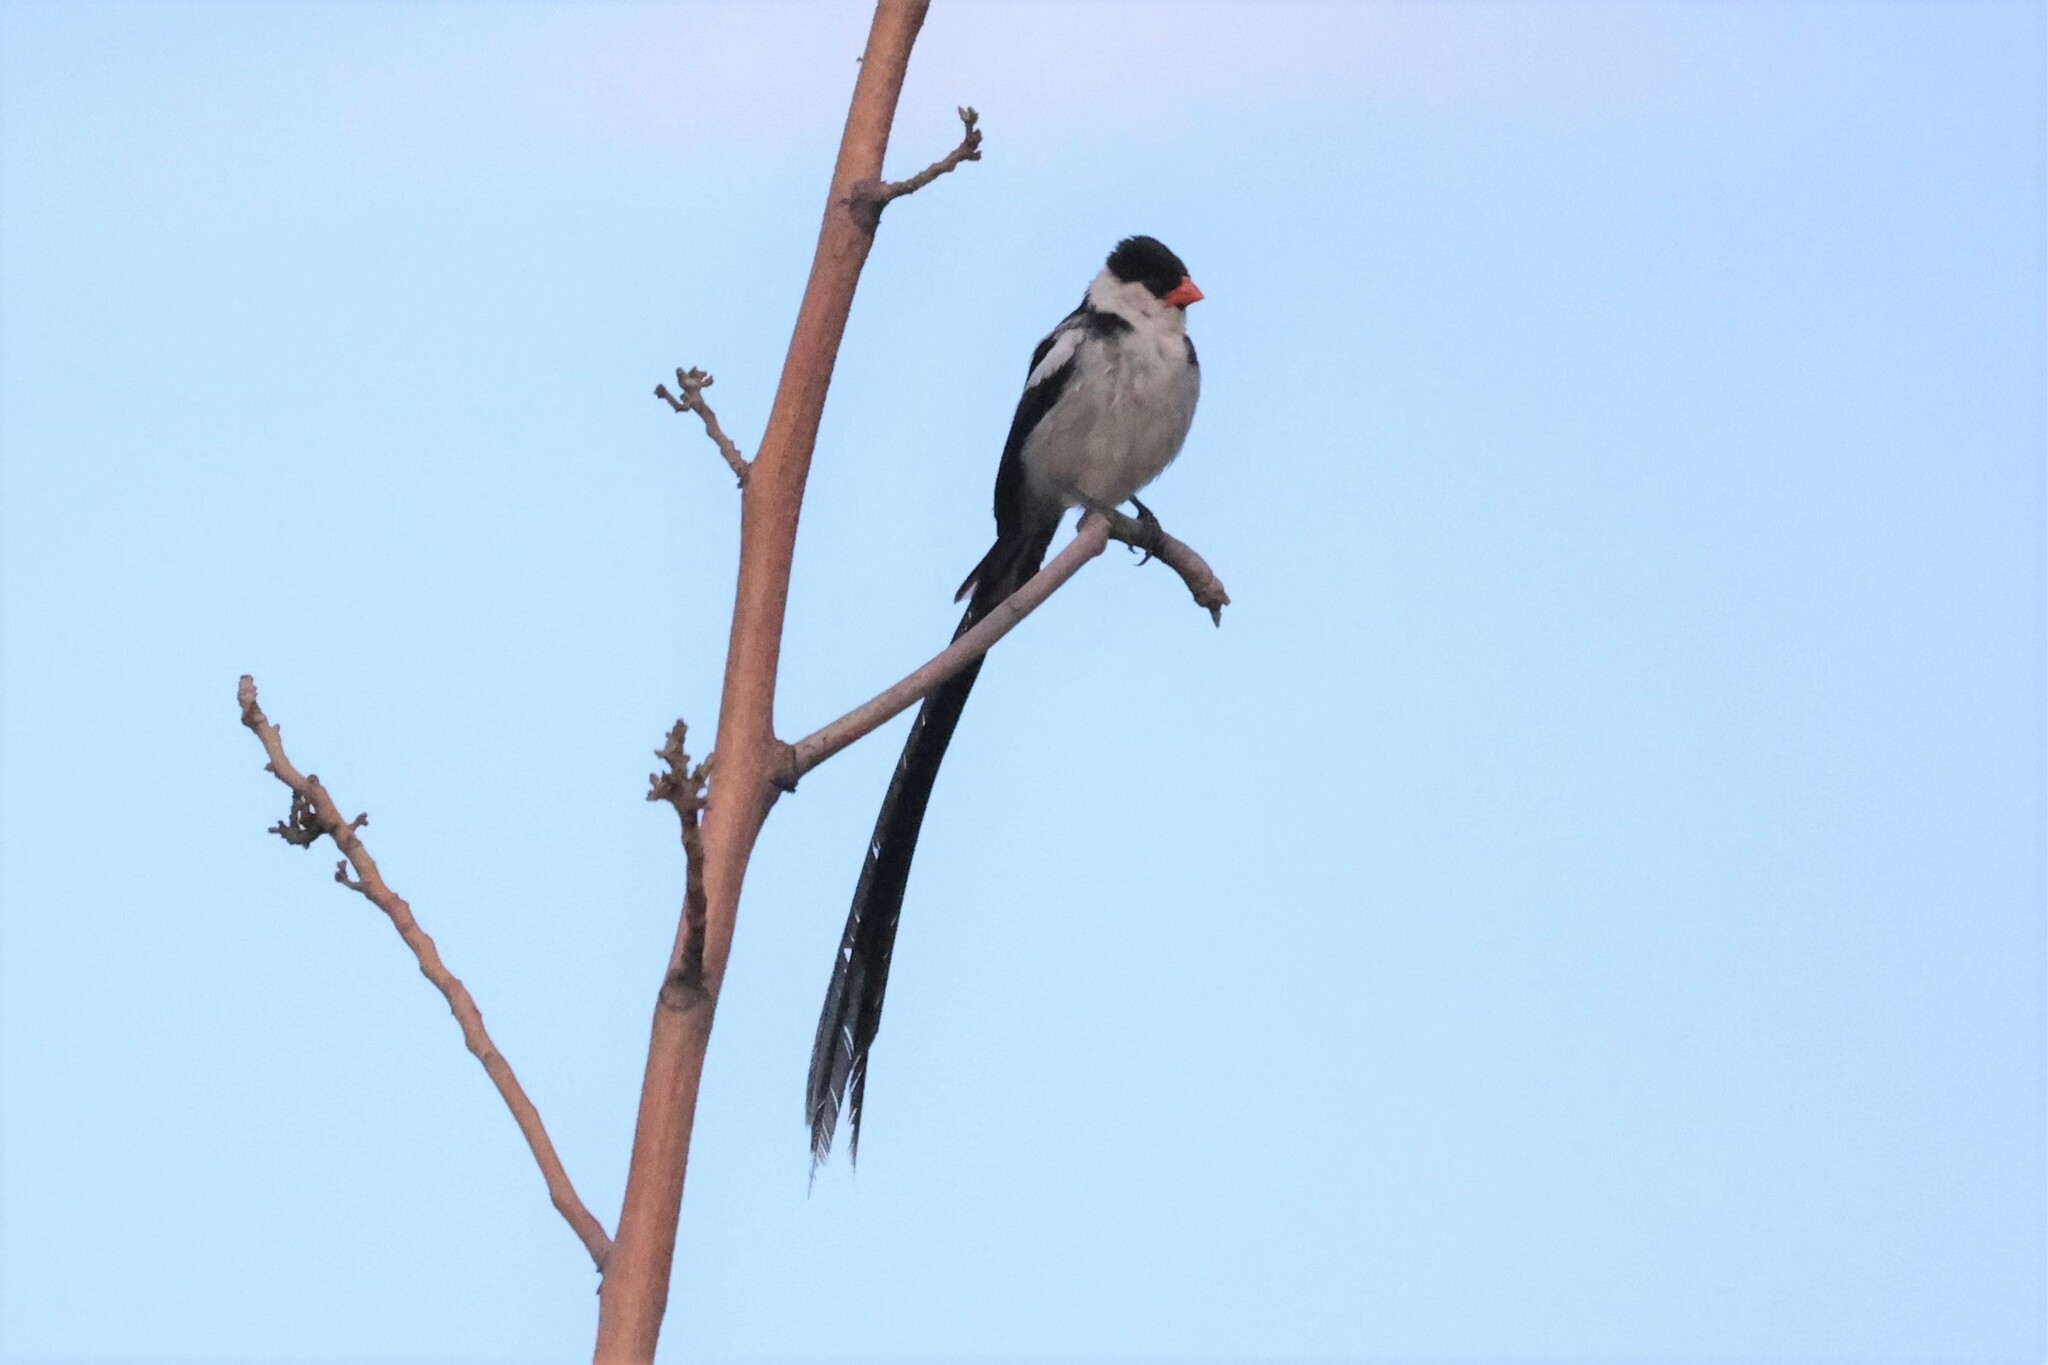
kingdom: Animalia
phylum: Chordata
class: Aves
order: Passeriformes
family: Viduidae
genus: Vidua
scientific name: Vidua macroura
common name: Pin-tailed whydah
